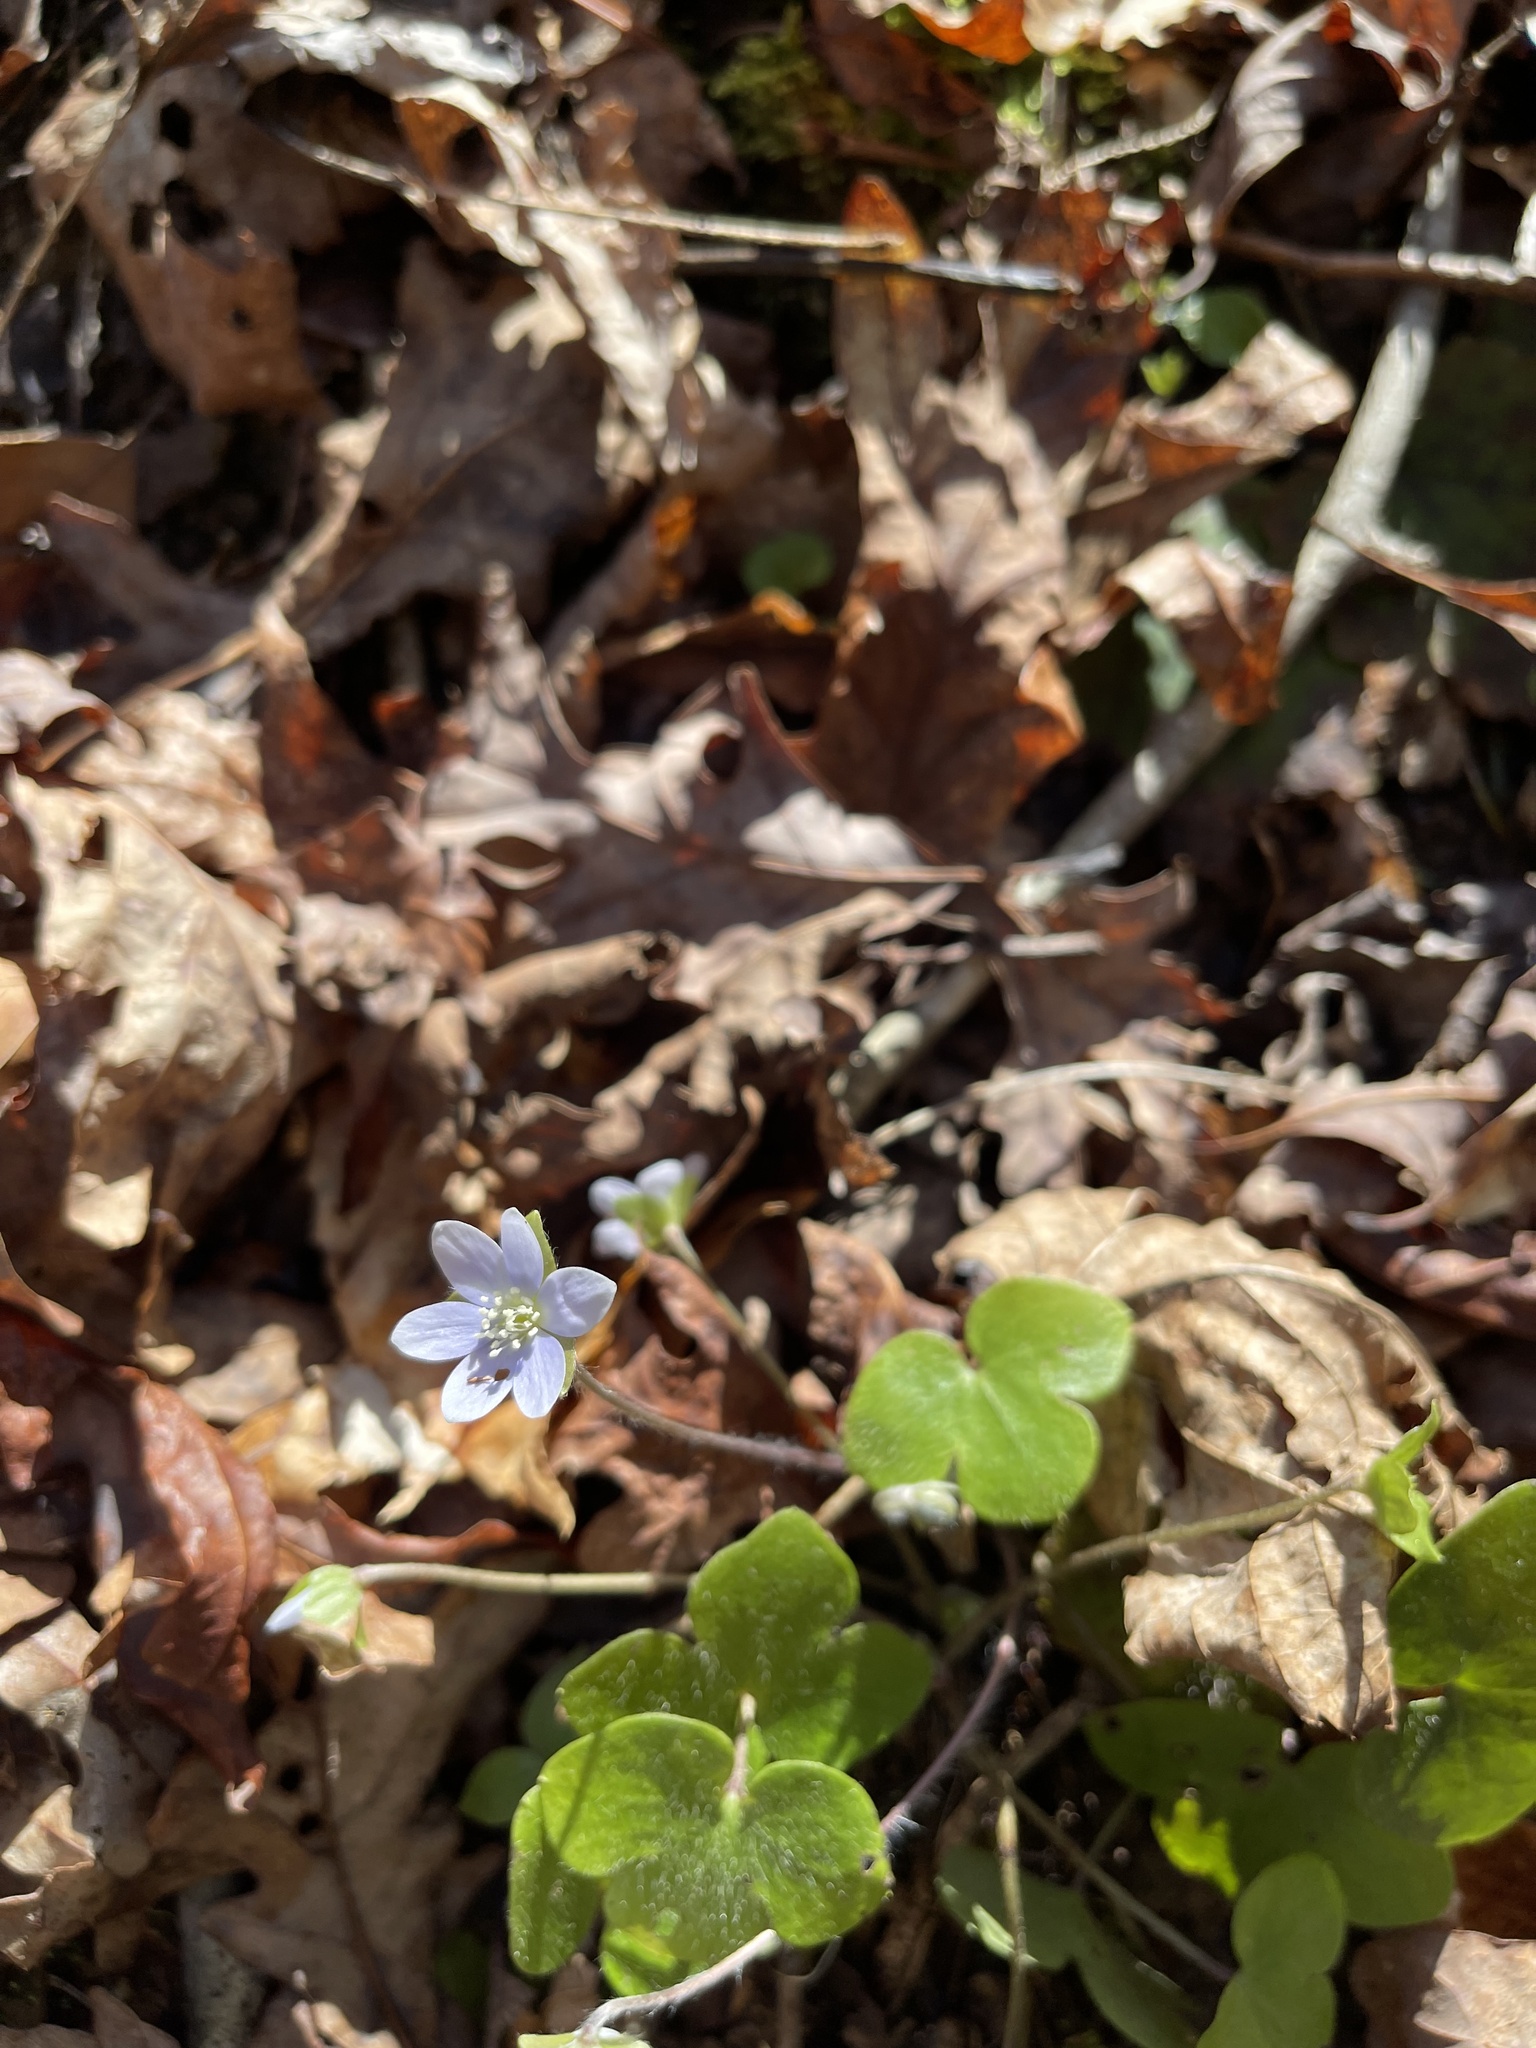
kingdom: Plantae
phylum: Tracheophyta
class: Magnoliopsida
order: Ranunculales
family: Ranunculaceae
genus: Hepatica
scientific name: Hepatica americana
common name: American hepatica
